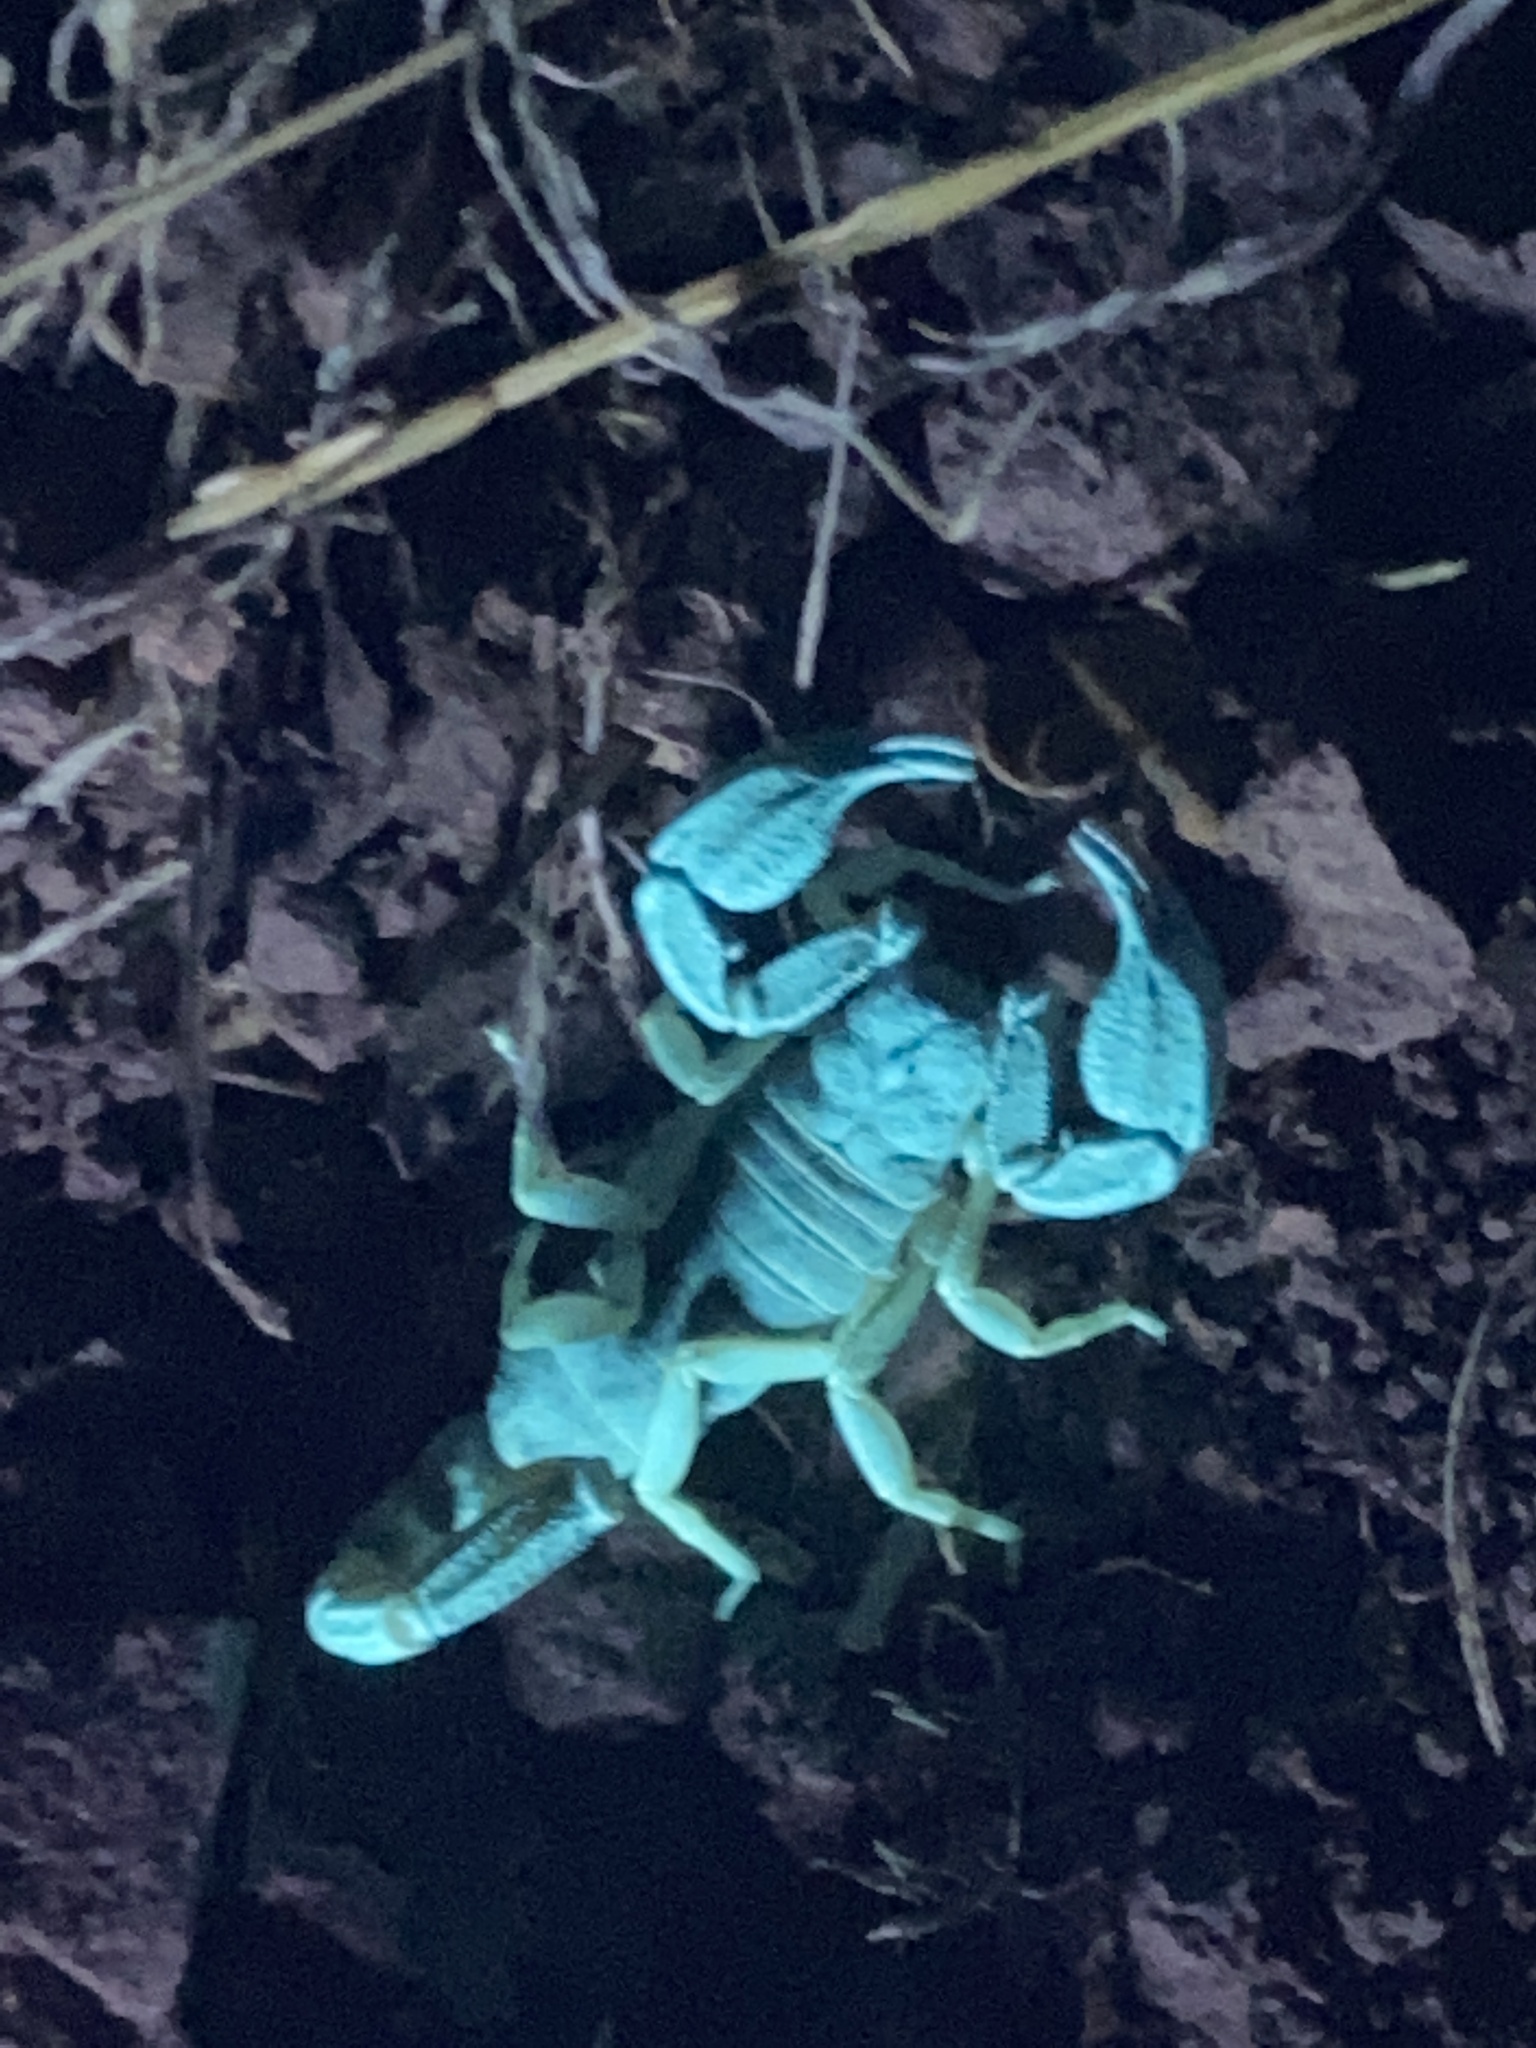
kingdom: Animalia
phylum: Arthropoda
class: Arachnida
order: Scorpiones
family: Chactidae
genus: Uroctonus
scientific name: Uroctonus mordax
